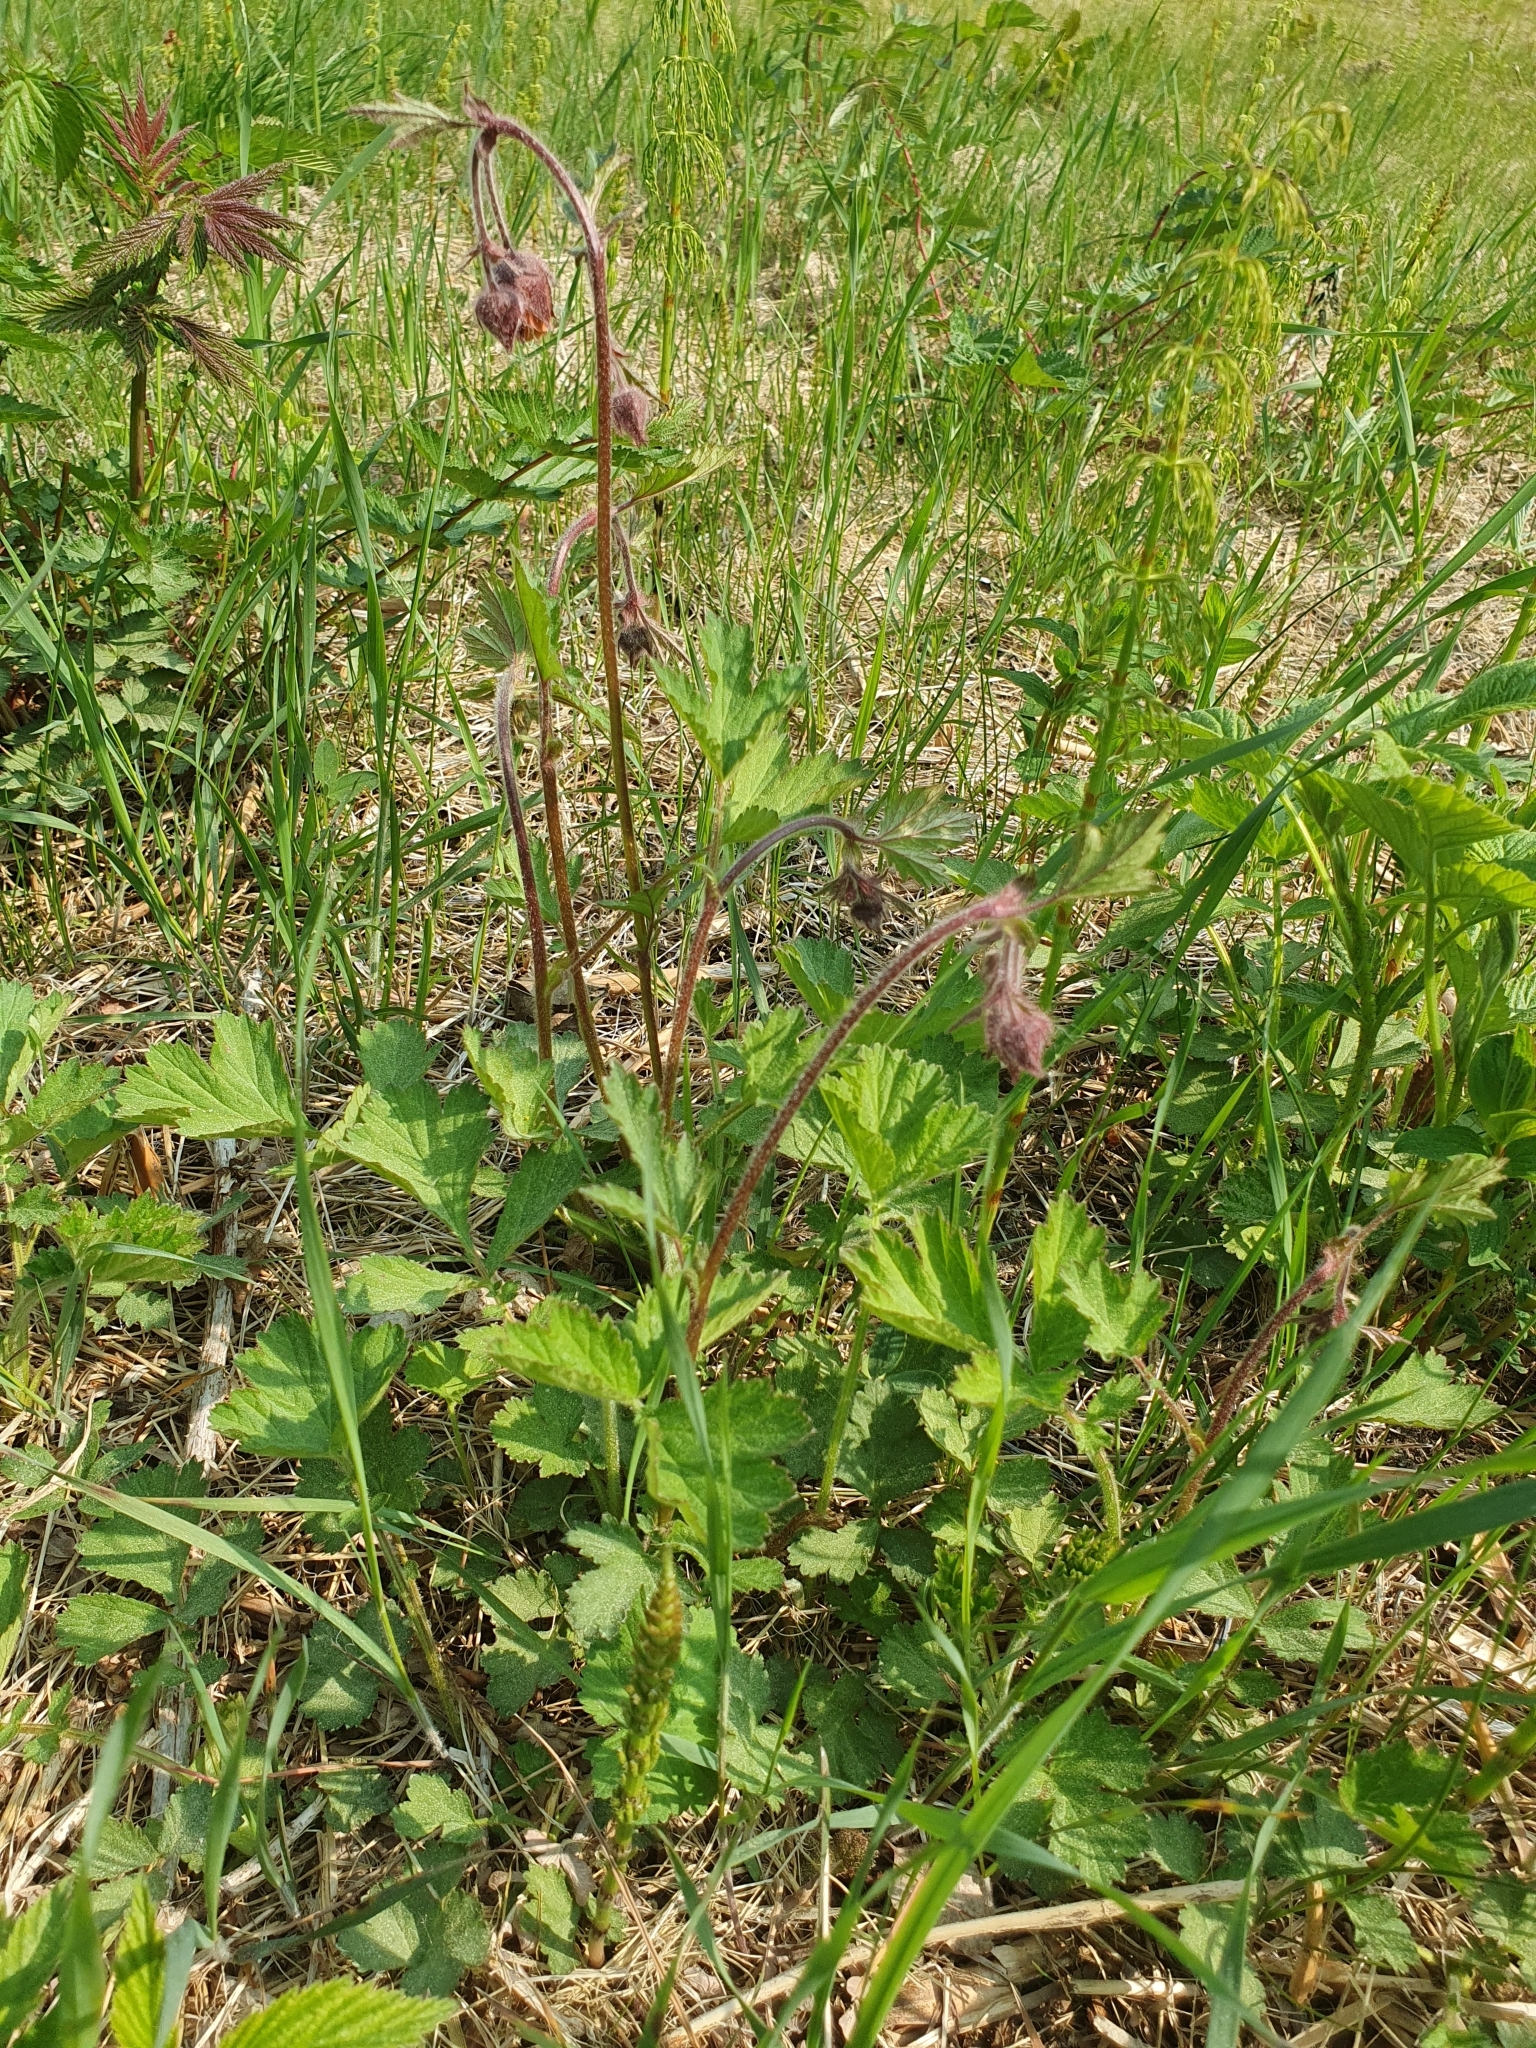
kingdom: Plantae
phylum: Tracheophyta
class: Magnoliopsida
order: Rosales
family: Rosaceae
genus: Geum
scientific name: Geum rivale
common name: Water avens
